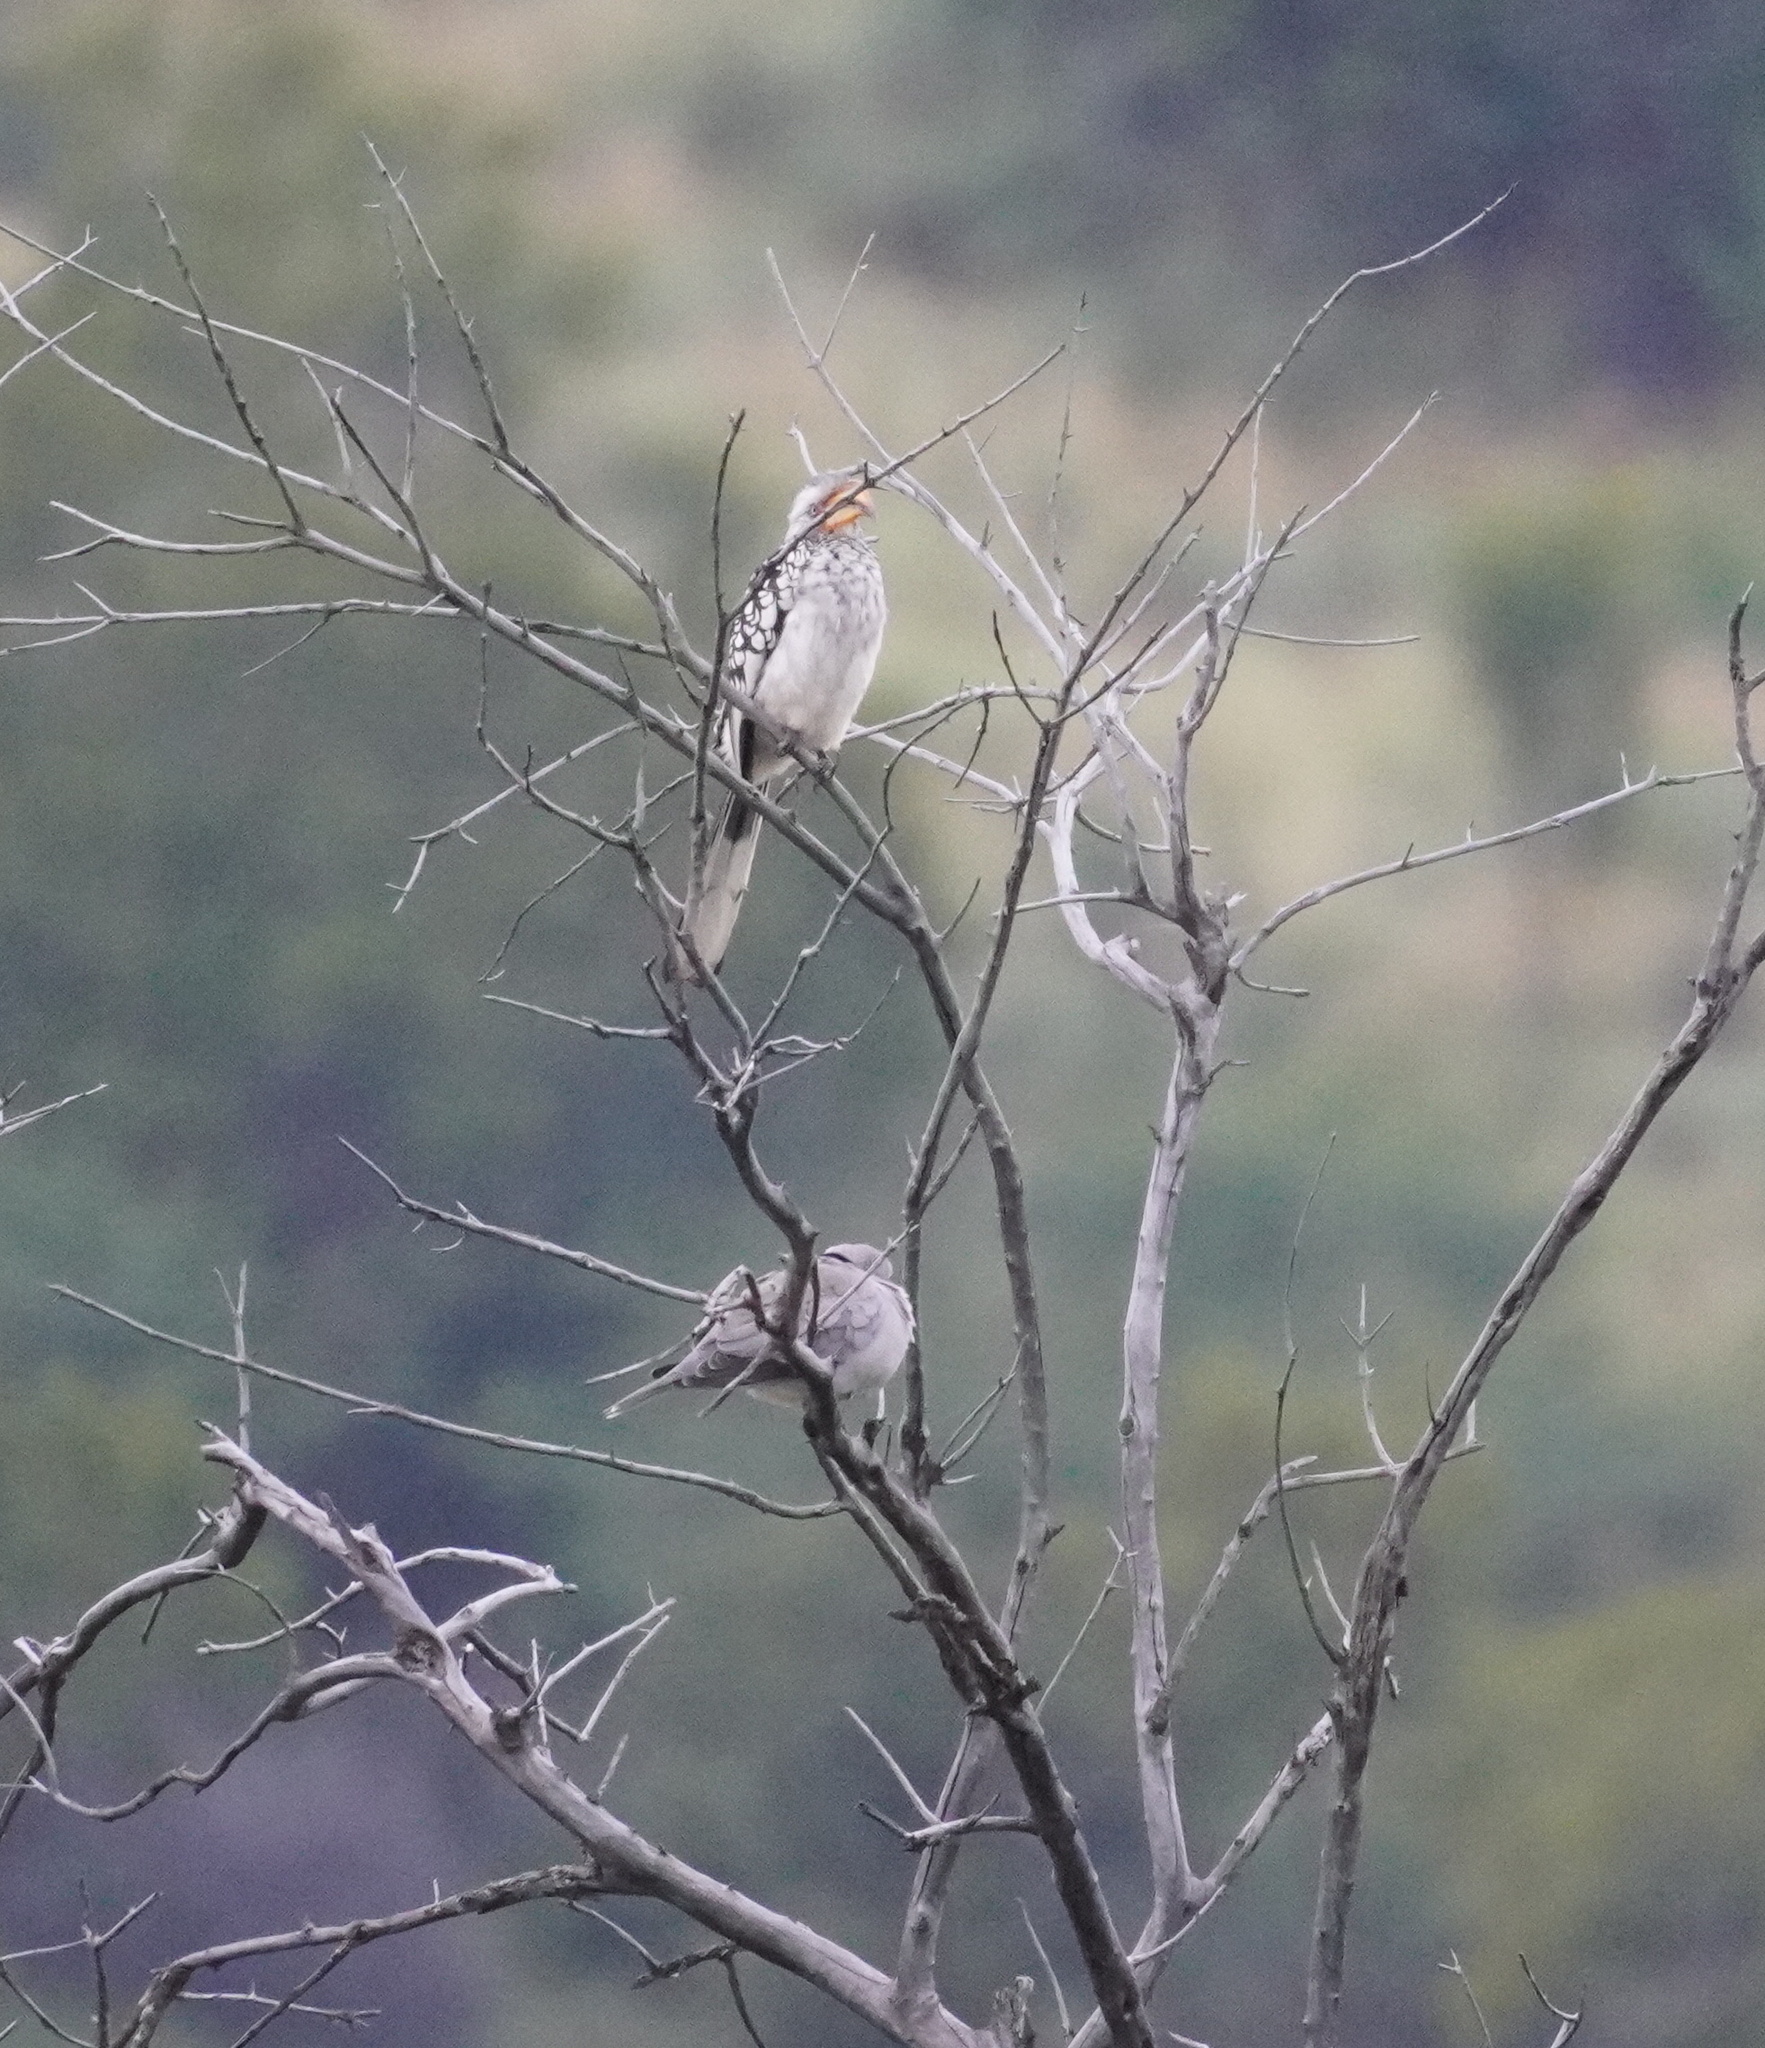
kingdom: Animalia
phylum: Chordata
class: Aves
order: Bucerotiformes
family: Bucerotidae
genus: Tockus
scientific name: Tockus leucomelas
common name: Southern yellow-billed hornbill
